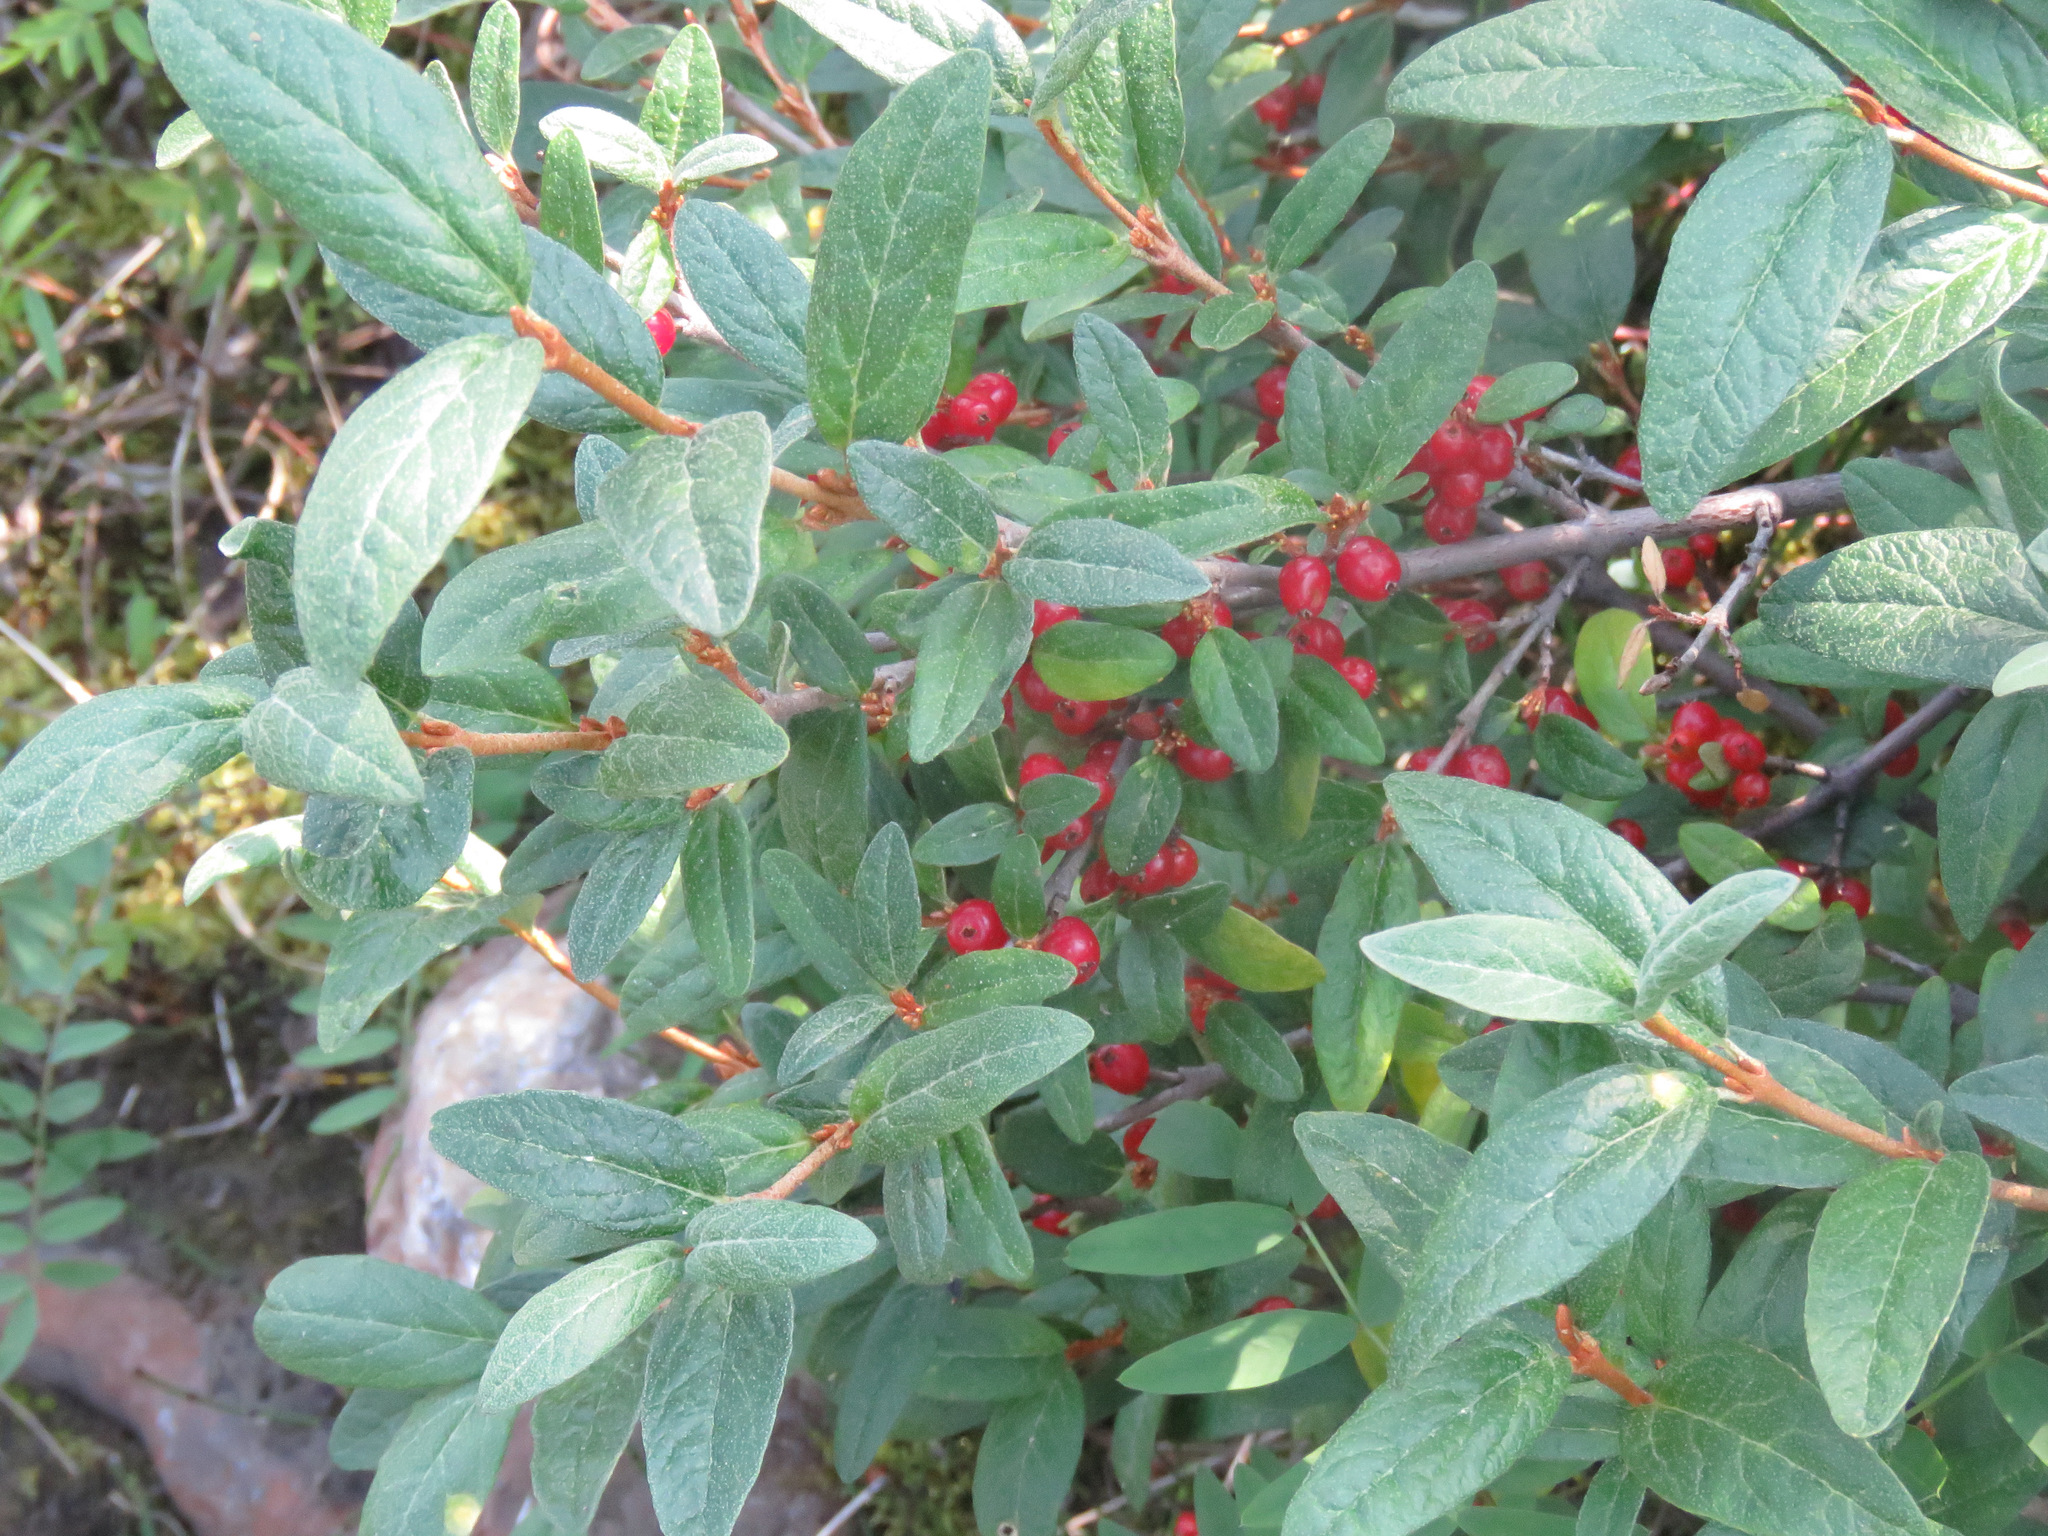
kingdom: Plantae
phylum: Tracheophyta
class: Magnoliopsida
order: Rosales
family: Elaeagnaceae
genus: Shepherdia
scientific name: Shepherdia canadensis
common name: Soapberry
